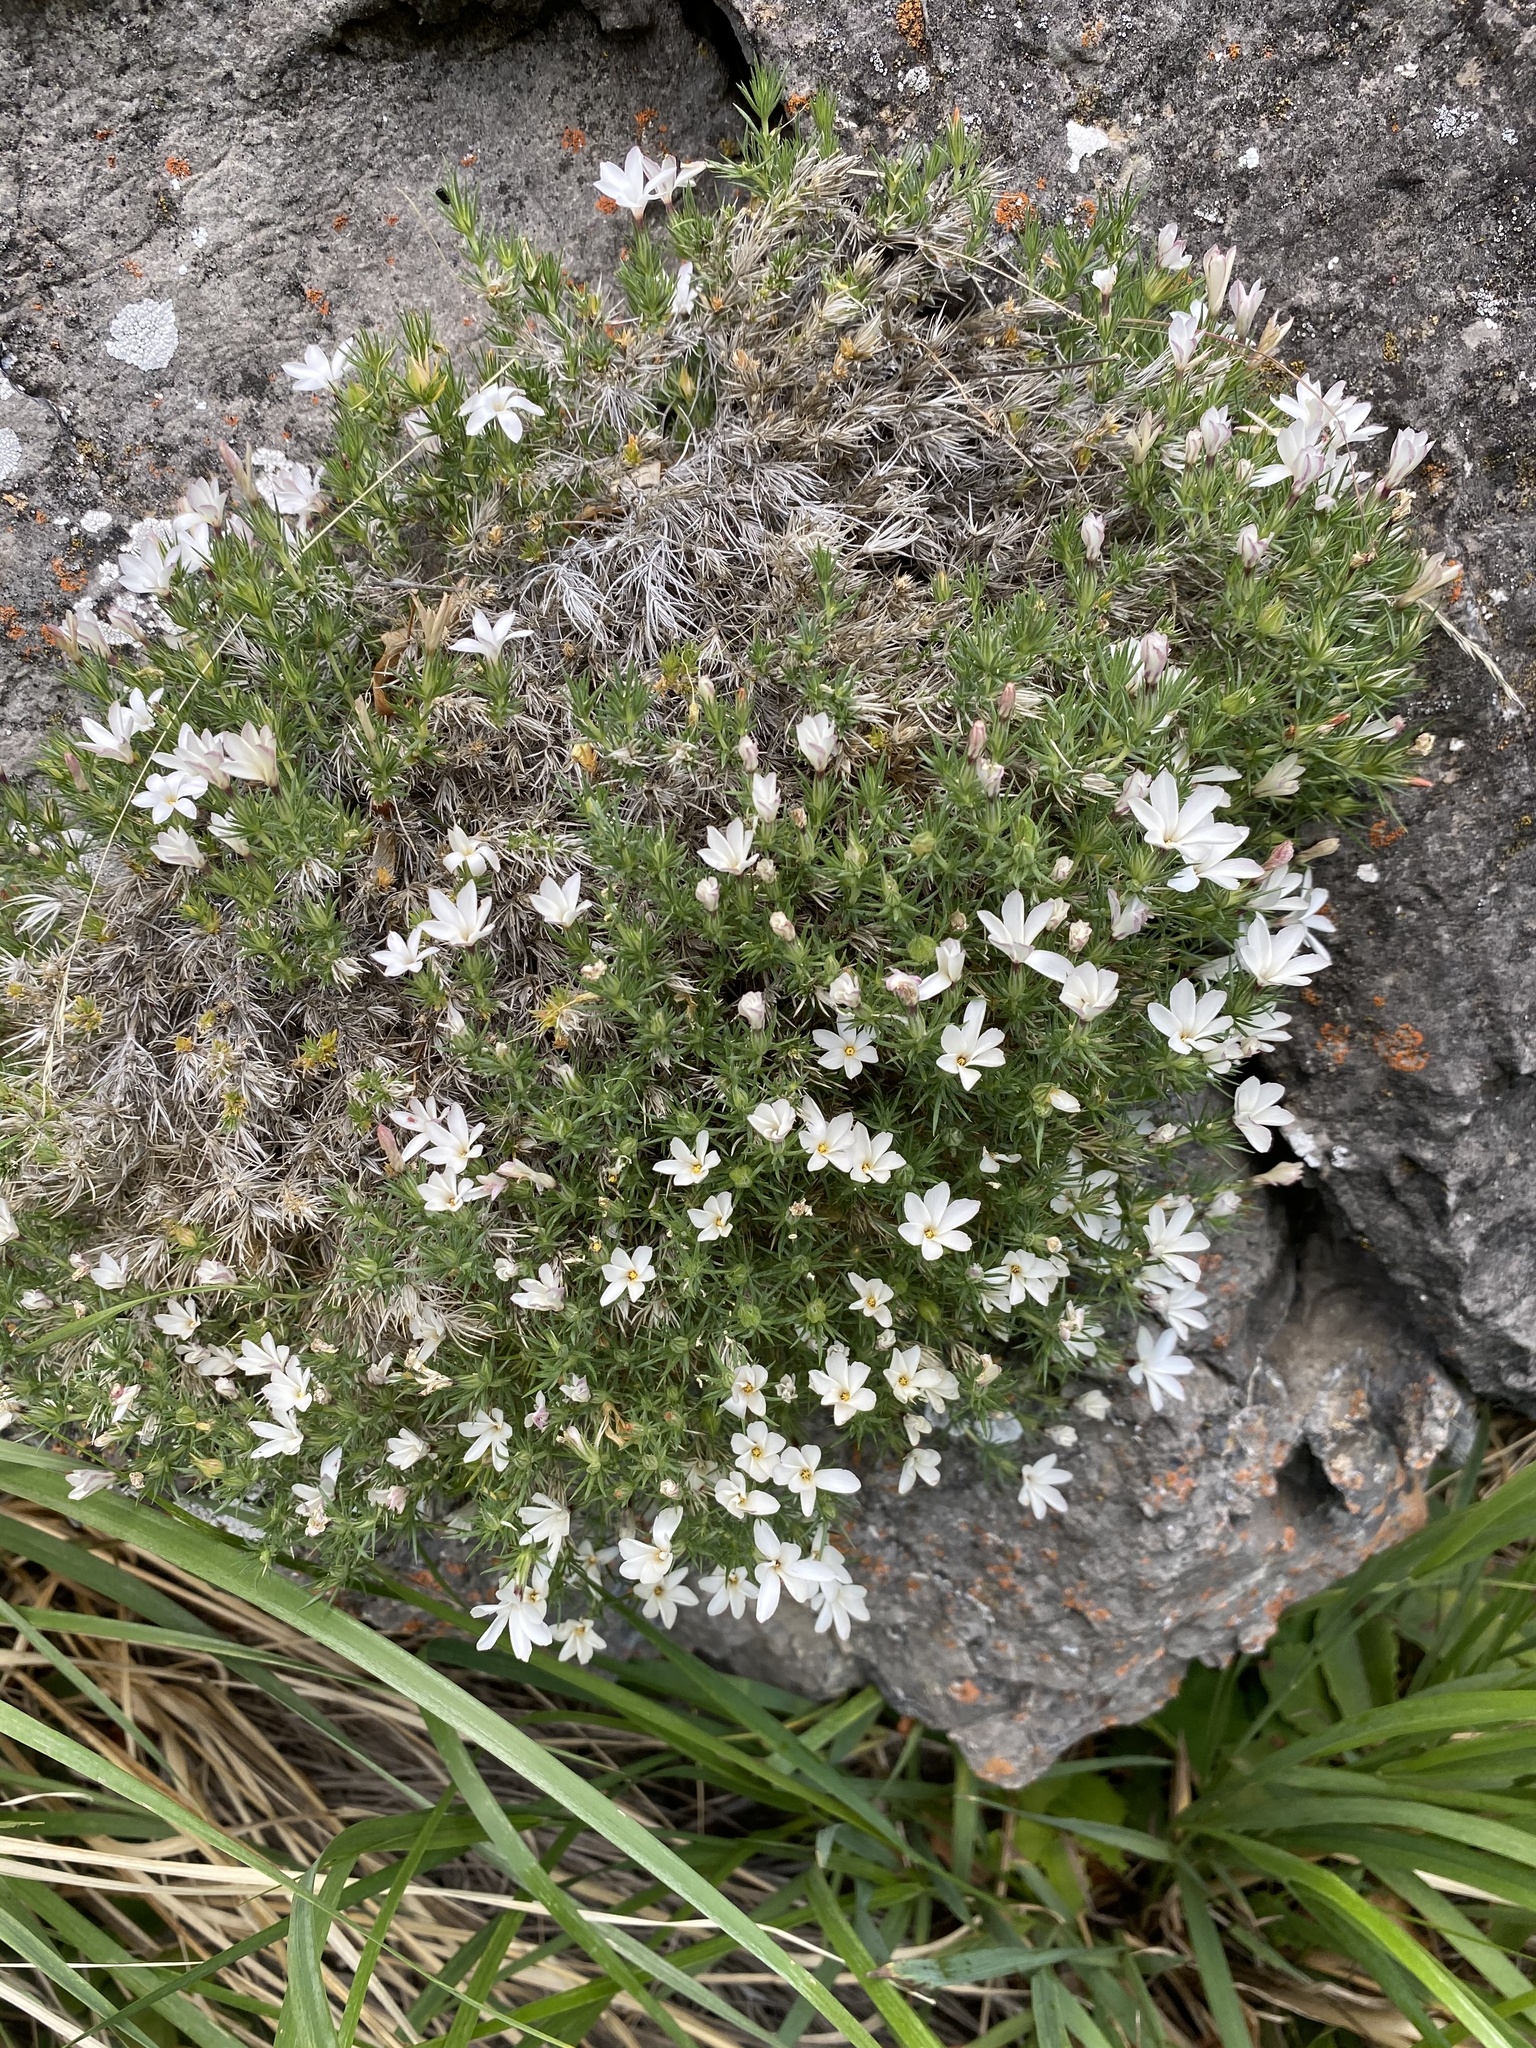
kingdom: Plantae
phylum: Tracheophyta
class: Magnoliopsida
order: Ericales
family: Polemoniaceae
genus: Linanthus
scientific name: Linanthus watsonii
